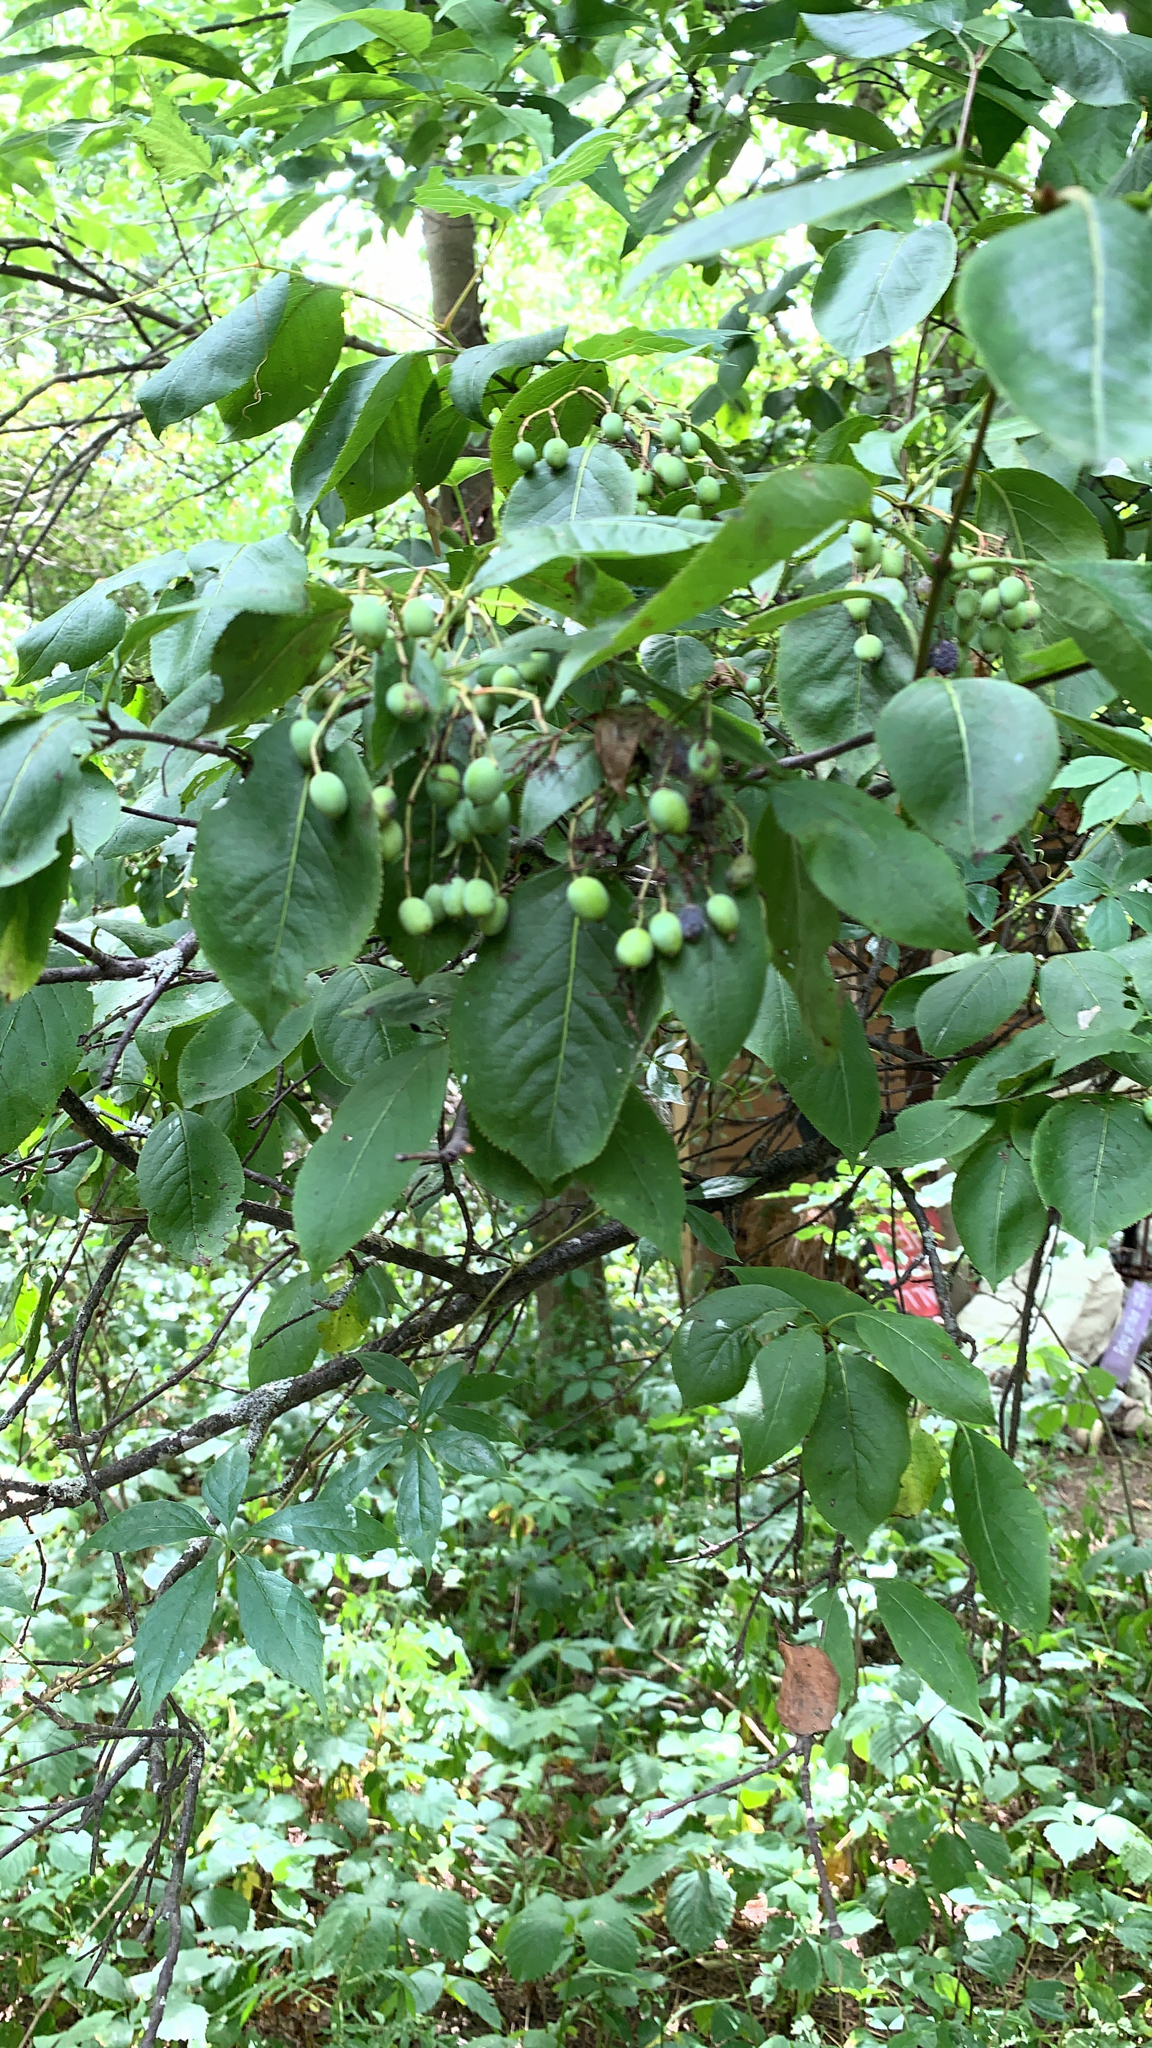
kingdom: Plantae
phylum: Tracheophyta
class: Magnoliopsida
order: Dipsacales
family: Viburnaceae
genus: Viburnum
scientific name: Viburnum lentago
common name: Black haw
